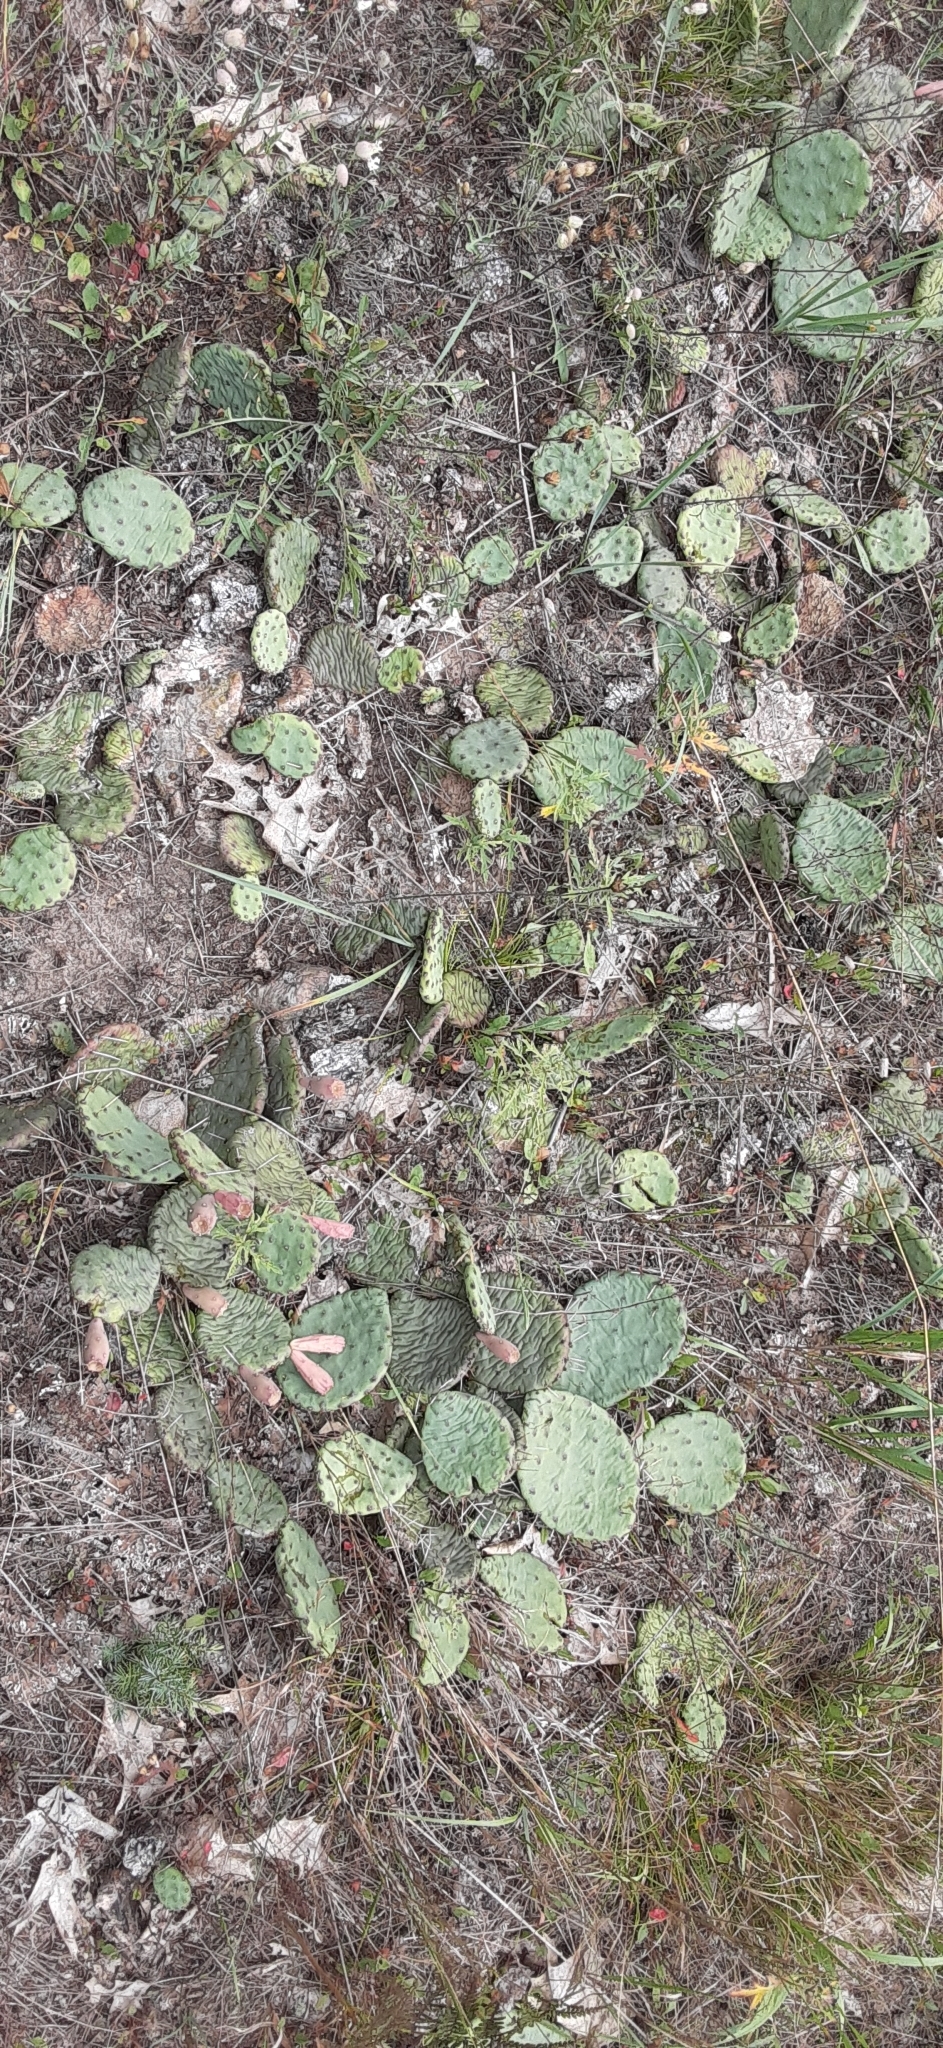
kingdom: Plantae
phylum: Tracheophyta
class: Magnoliopsida
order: Caryophyllales
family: Cactaceae
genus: Opuntia
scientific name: Opuntia humifusa
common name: Eastern prickly-pear
